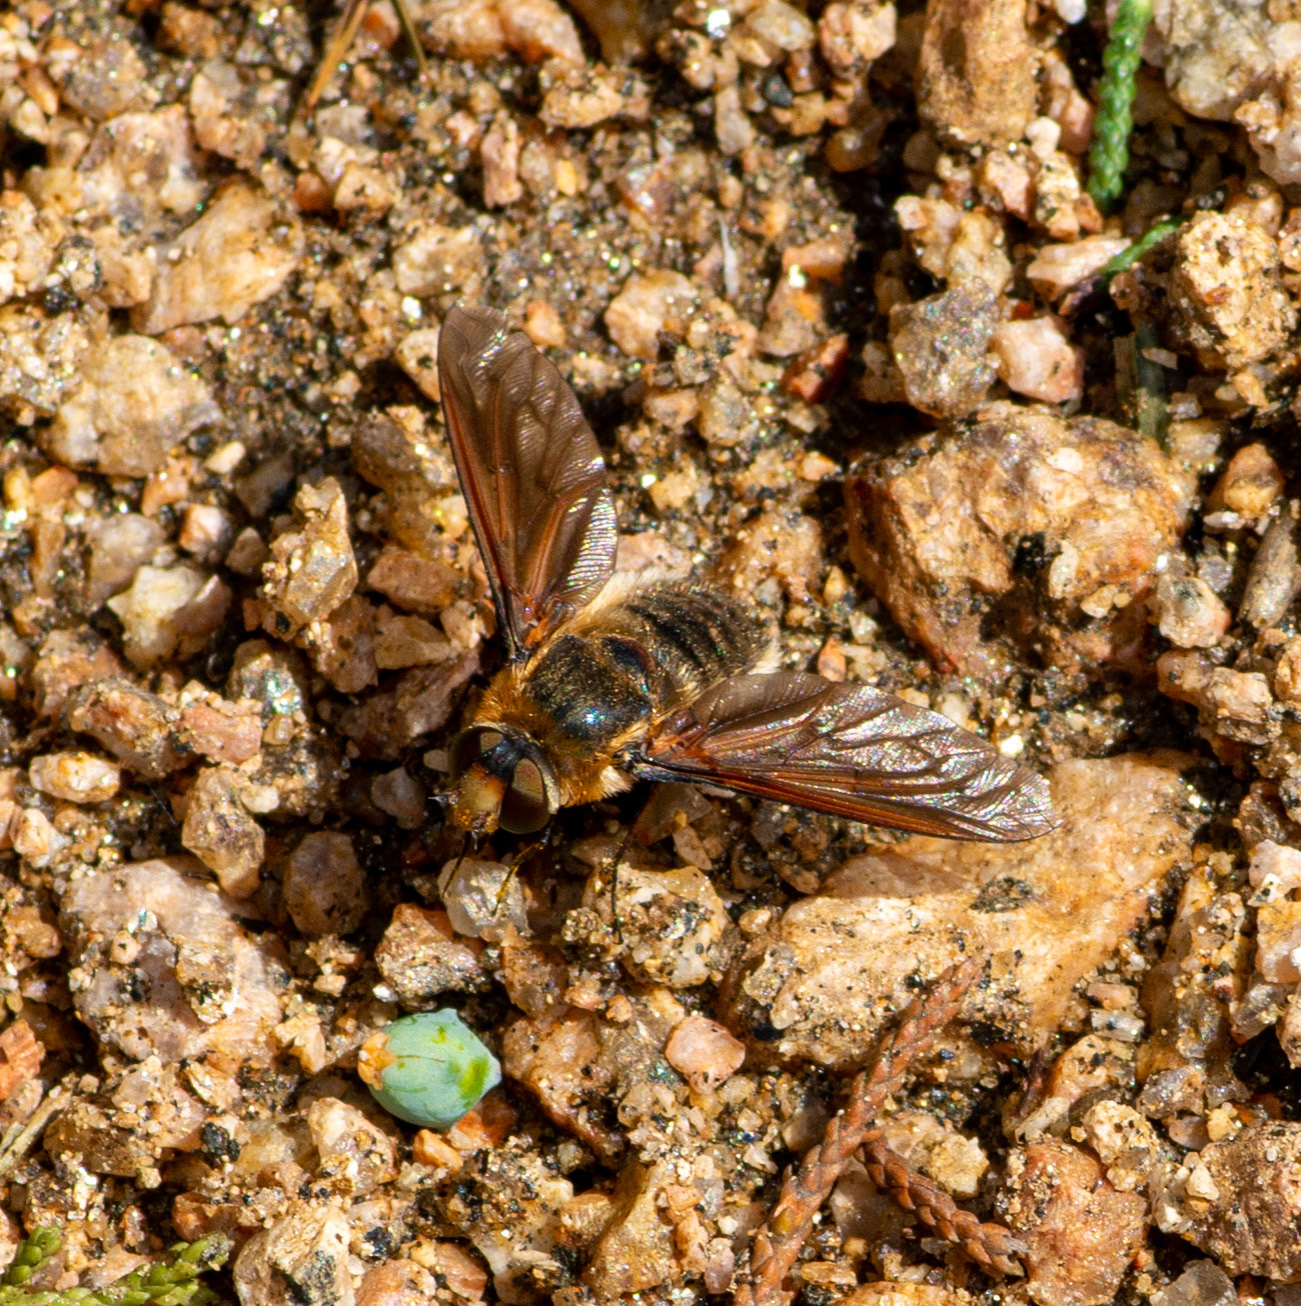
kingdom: Animalia
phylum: Arthropoda
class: Insecta
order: Diptera
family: Bombyliidae
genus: Poecilanthrax
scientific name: Poecilanthrax lucifer
